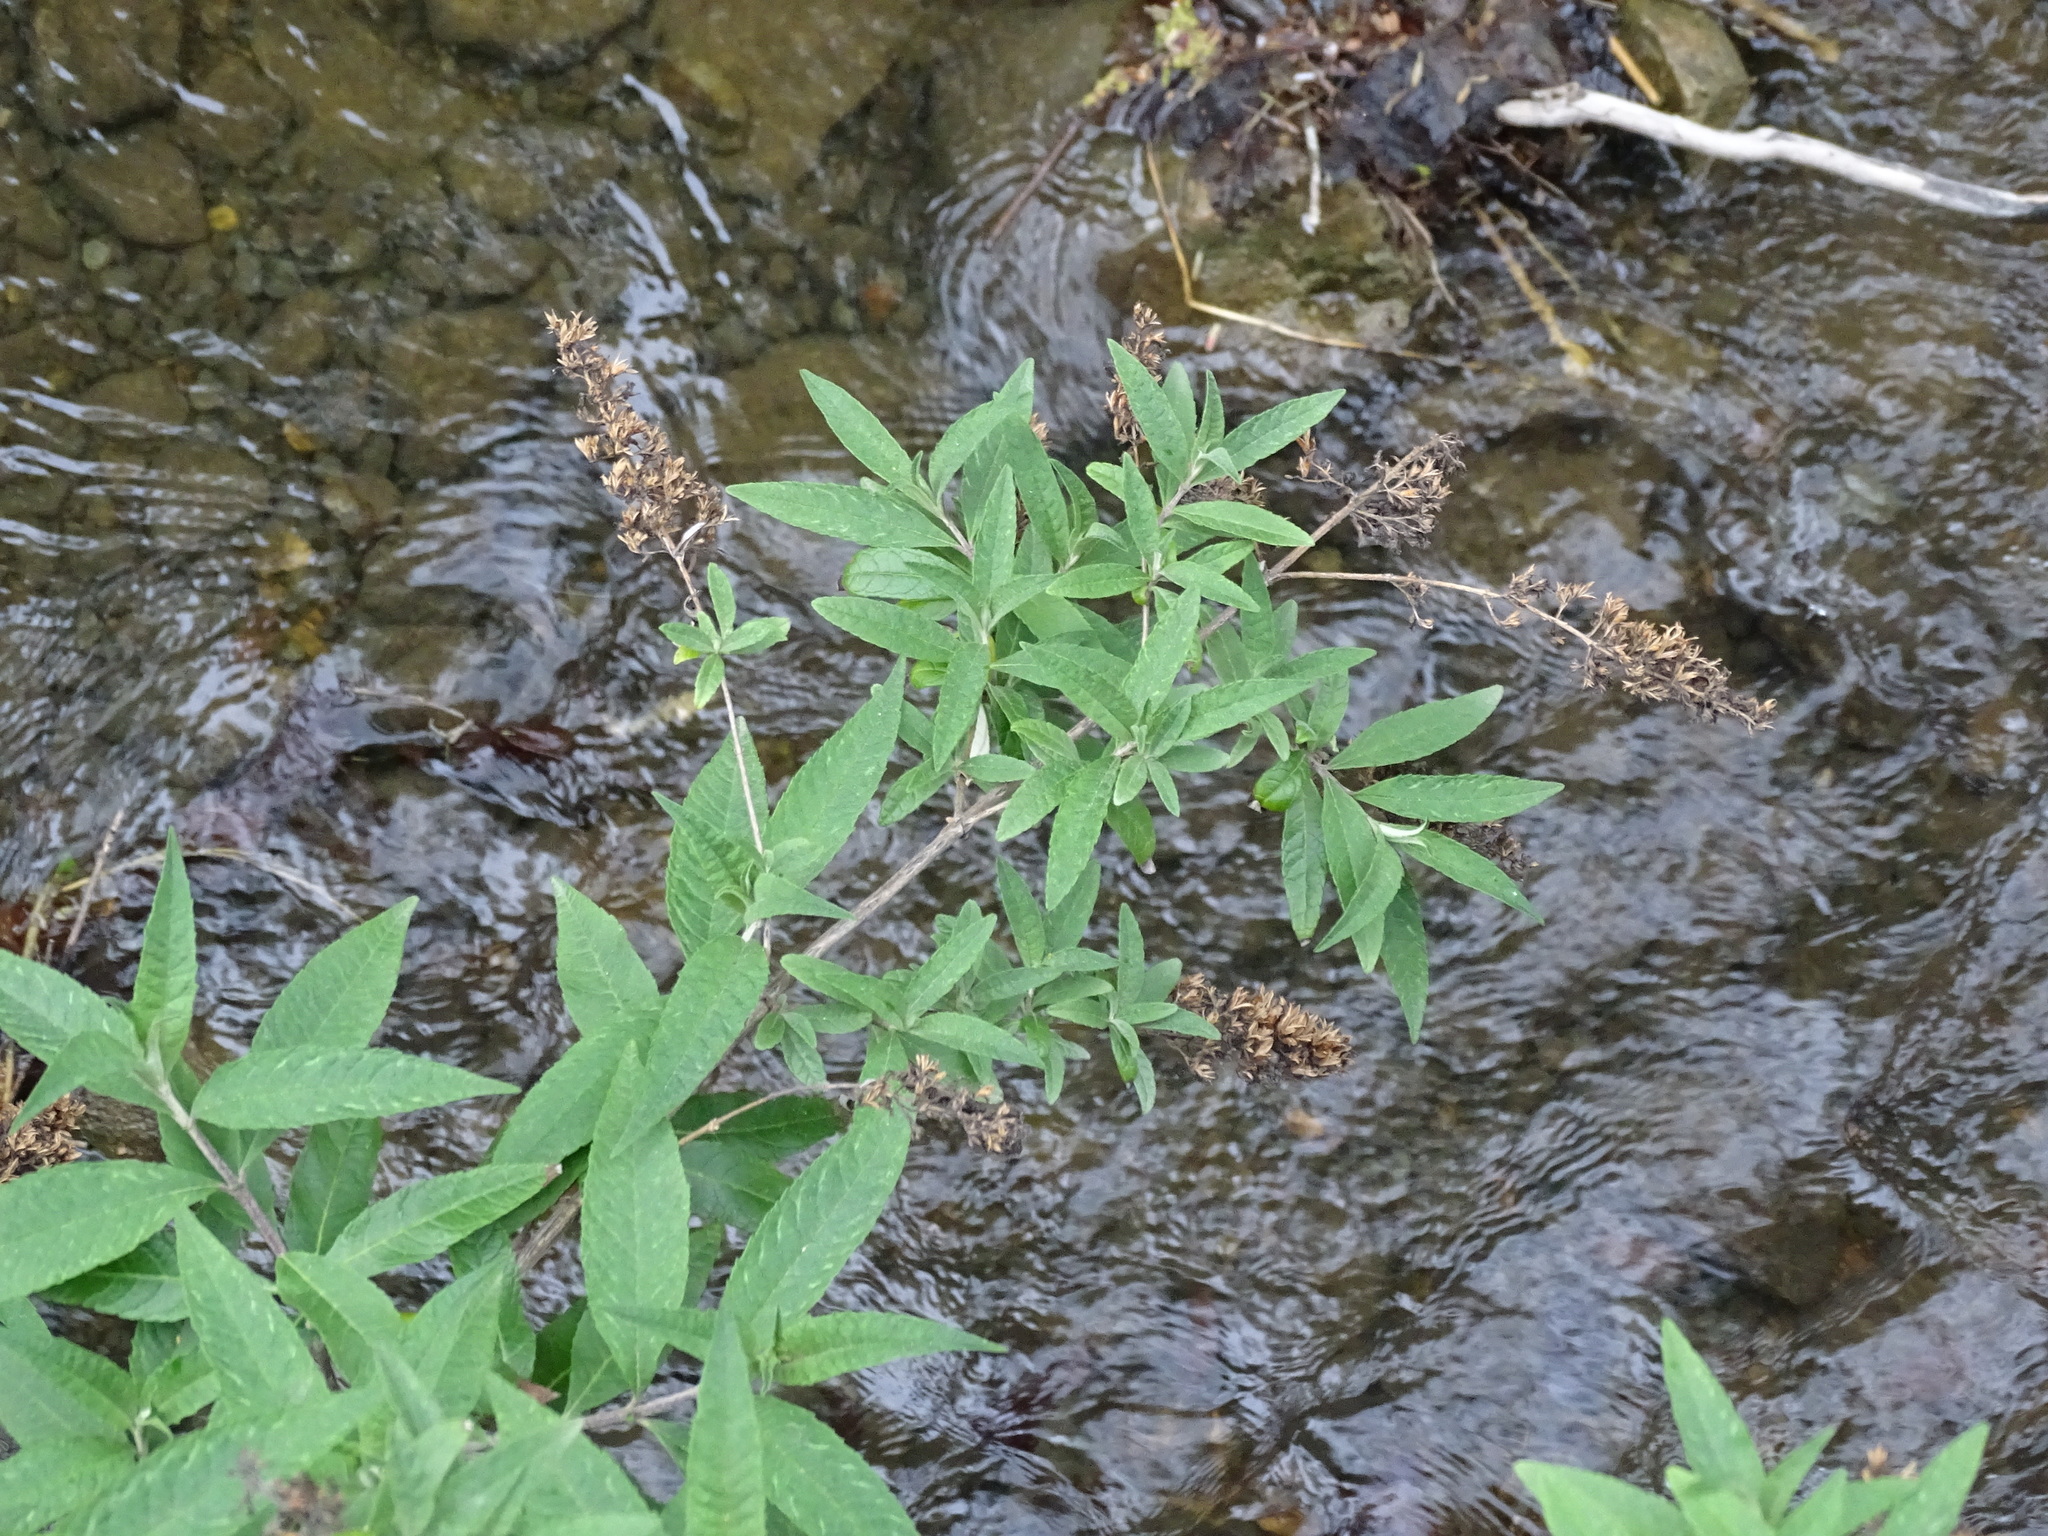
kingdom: Plantae
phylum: Tracheophyta
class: Magnoliopsida
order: Lamiales
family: Scrophulariaceae
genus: Buddleja
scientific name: Buddleja davidii
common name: Butterfly-bush
